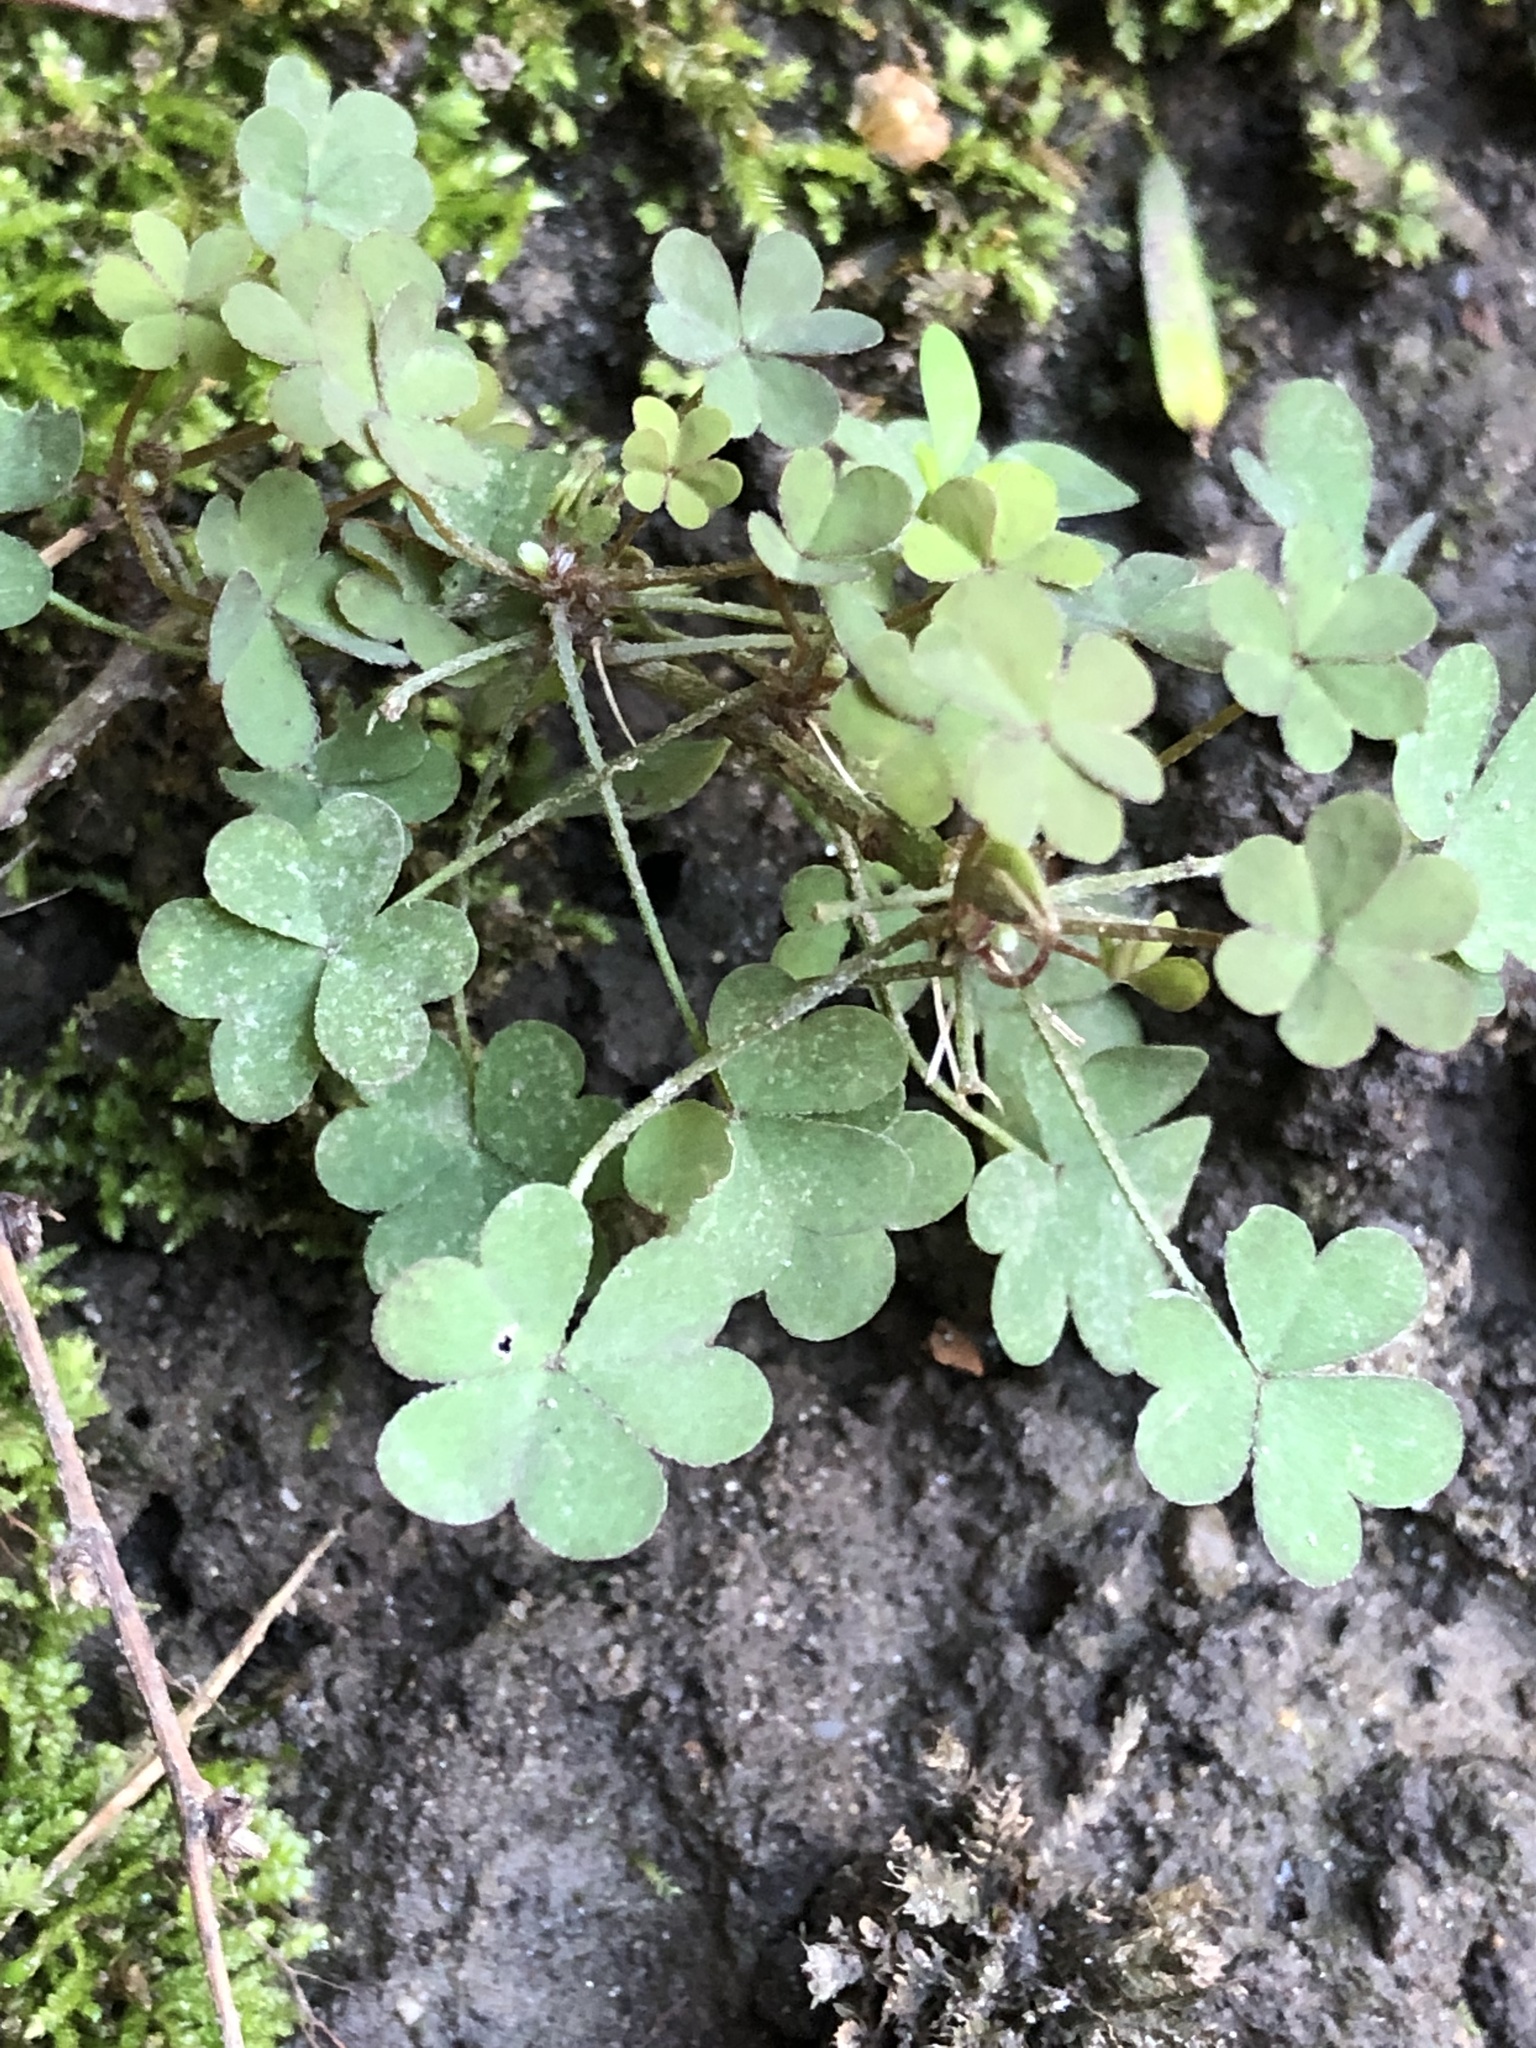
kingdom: Plantae
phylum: Tracheophyta
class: Magnoliopsida
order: Oxalidales
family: Oxalidaceae
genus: Oxalis
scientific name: Oxalis corniculata
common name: Procumbent yellow-sorrel
